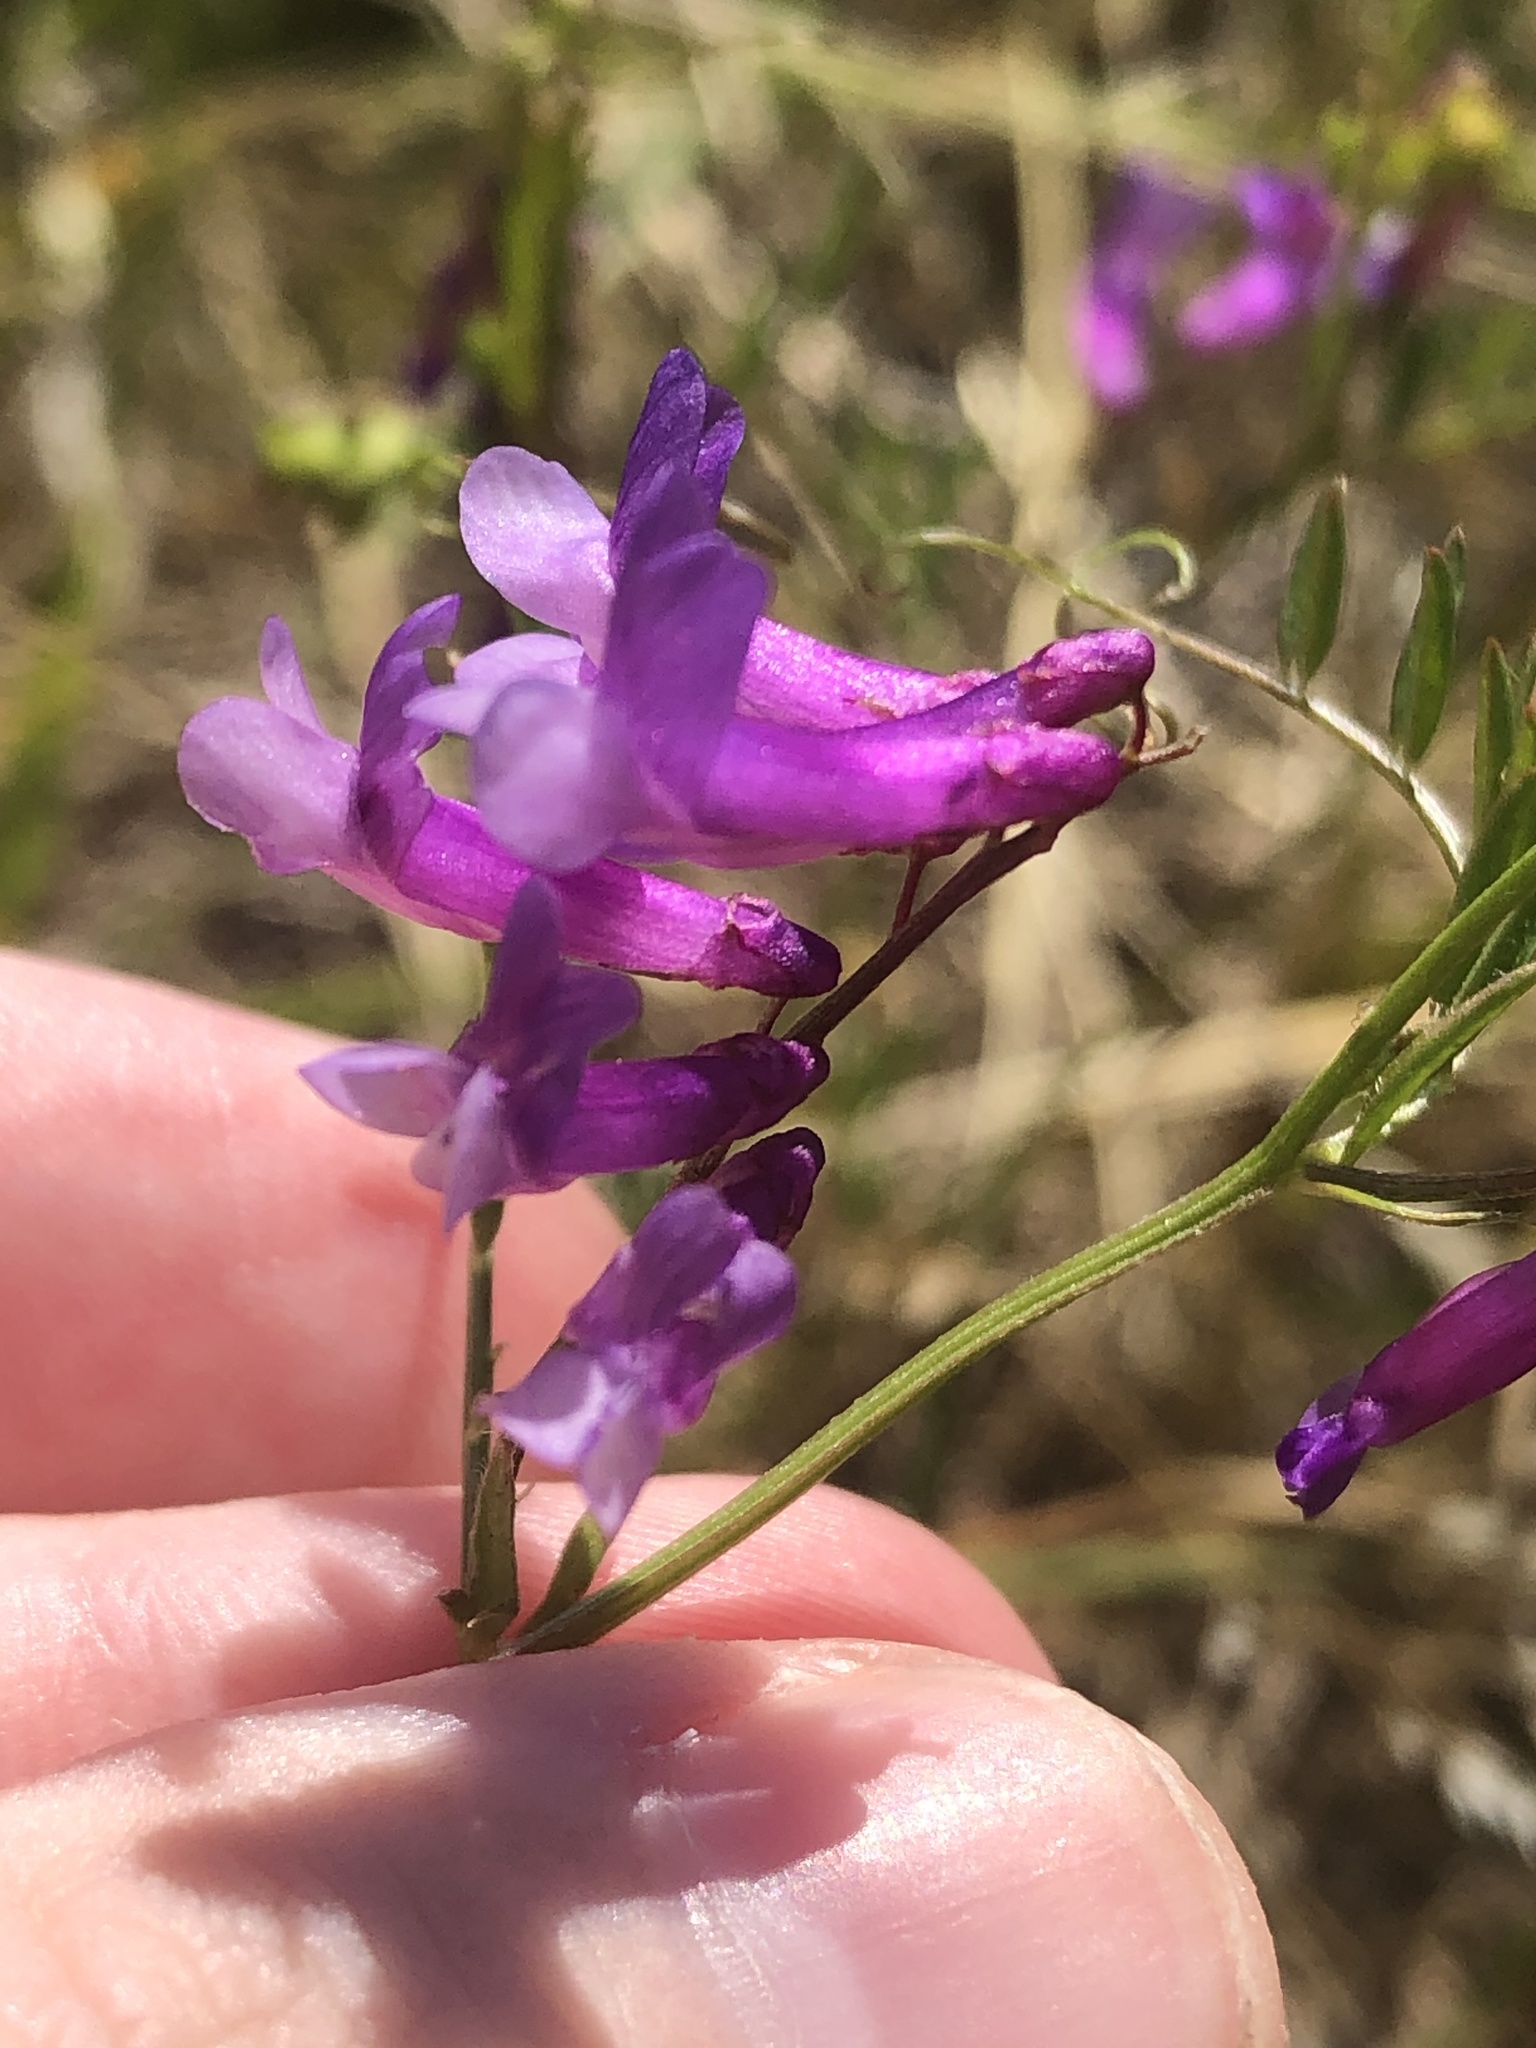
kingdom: Plantae
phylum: Tracheophyta
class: Magnoliopsida
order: Fabales
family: Fabaceae
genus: Vicia
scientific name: Vicia villosa
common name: Fodder vetch
